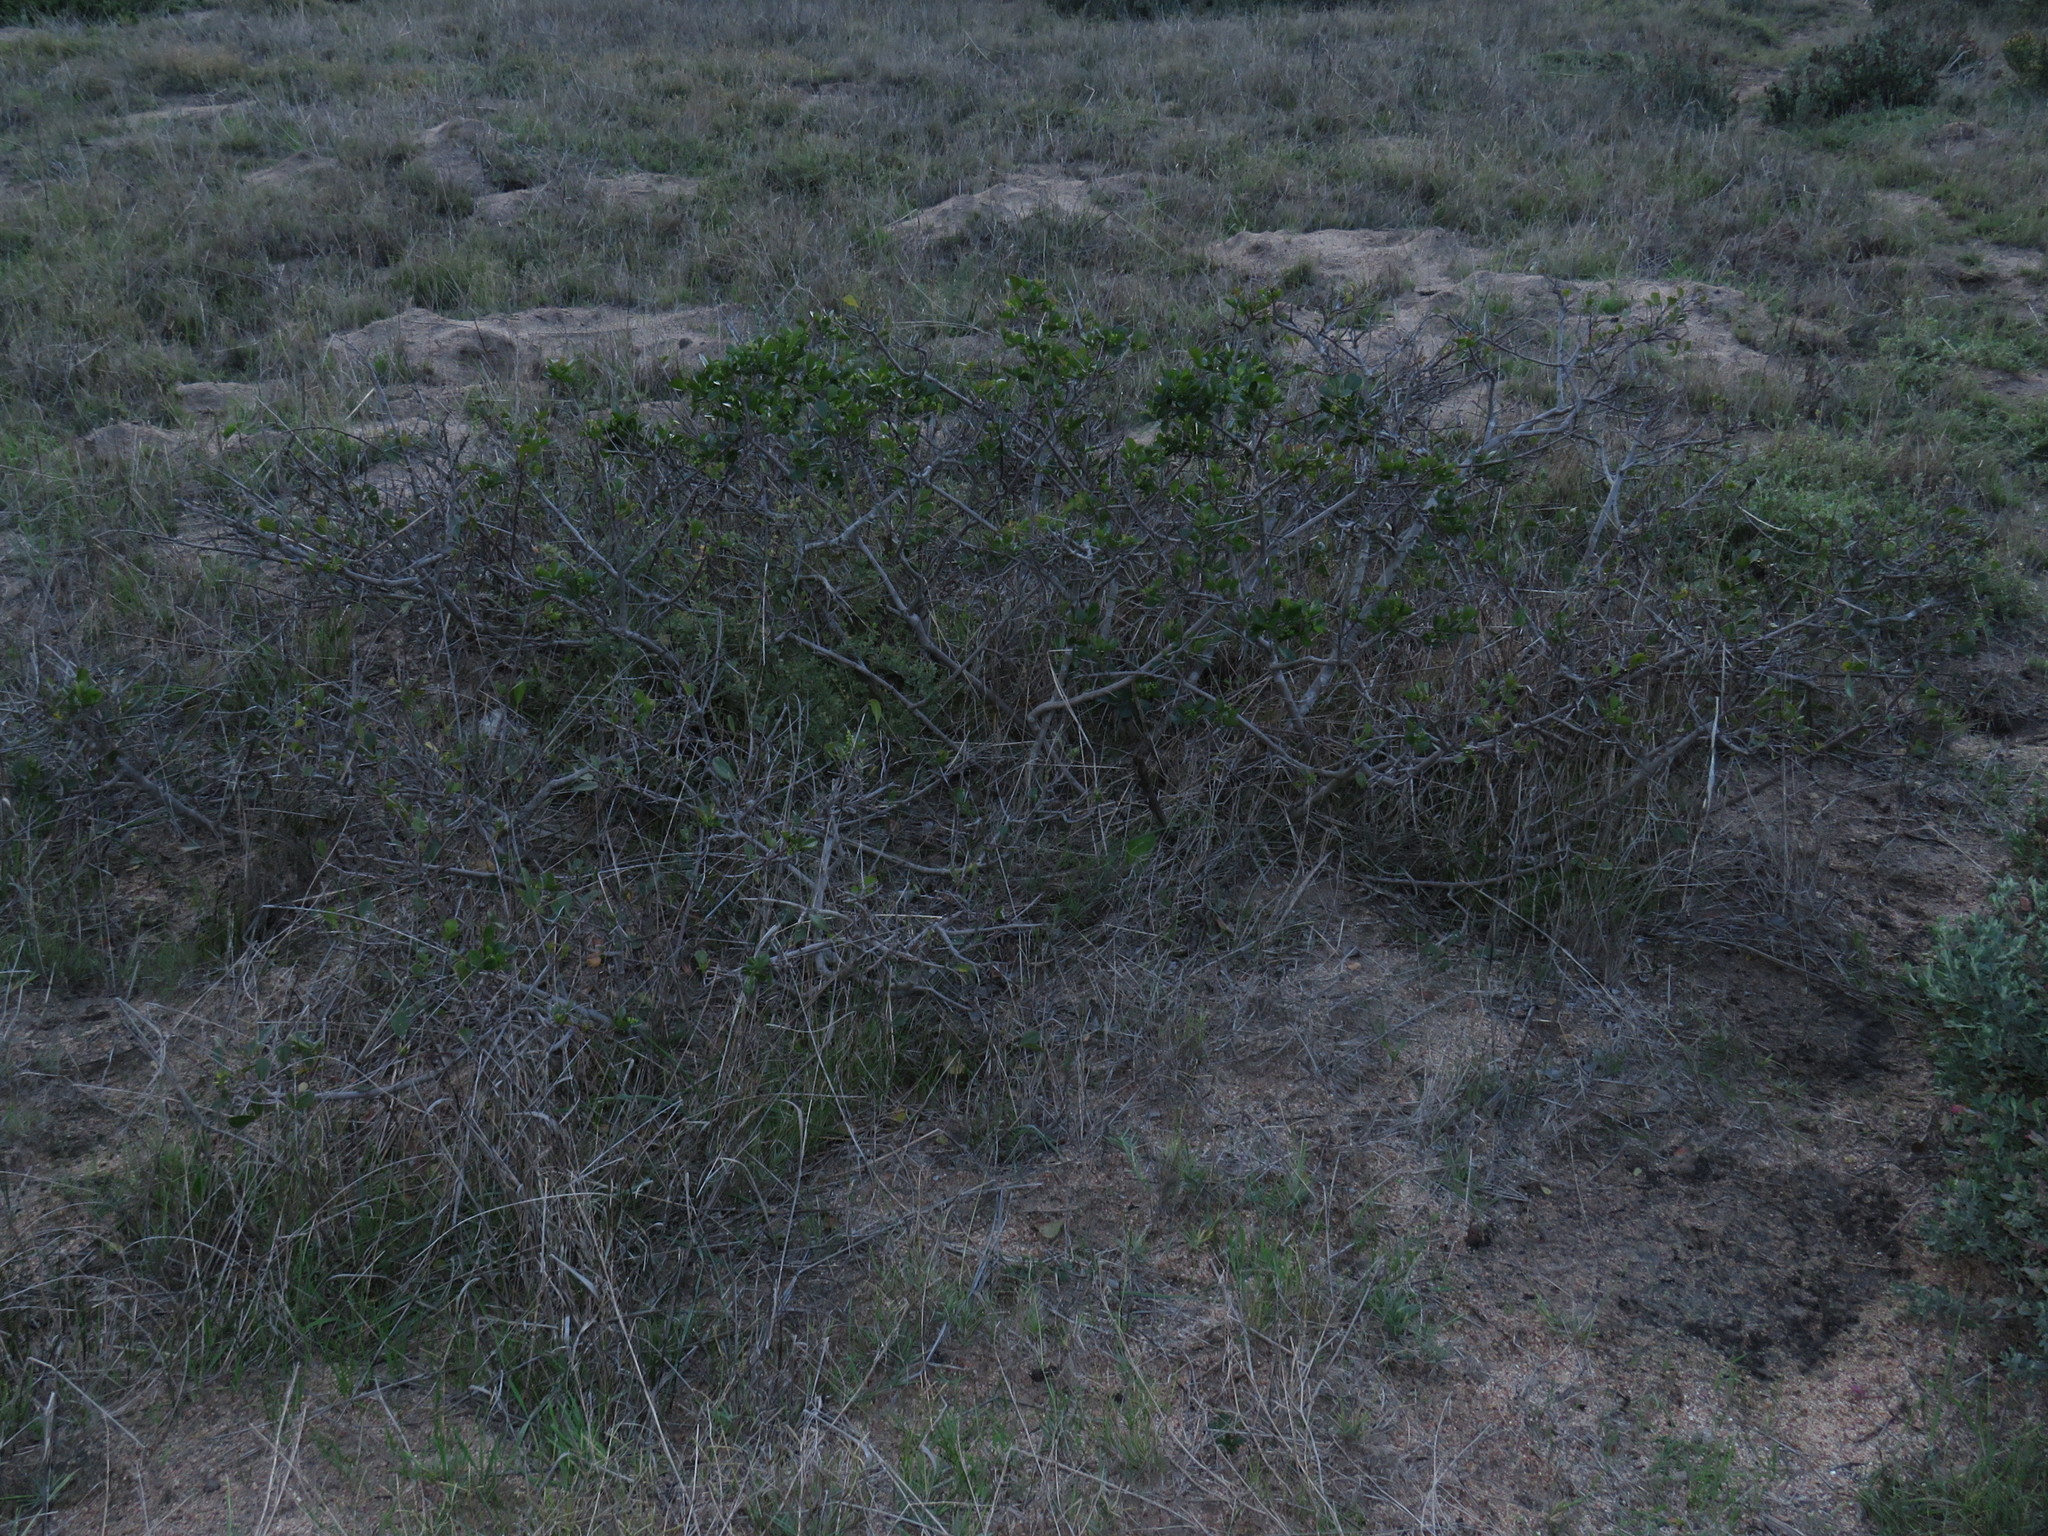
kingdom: Plantae
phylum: Tracheophyta
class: Magnoliopsida
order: Sapindales
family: Anacardiaceae
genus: Searsia
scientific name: Searsia laevigata
